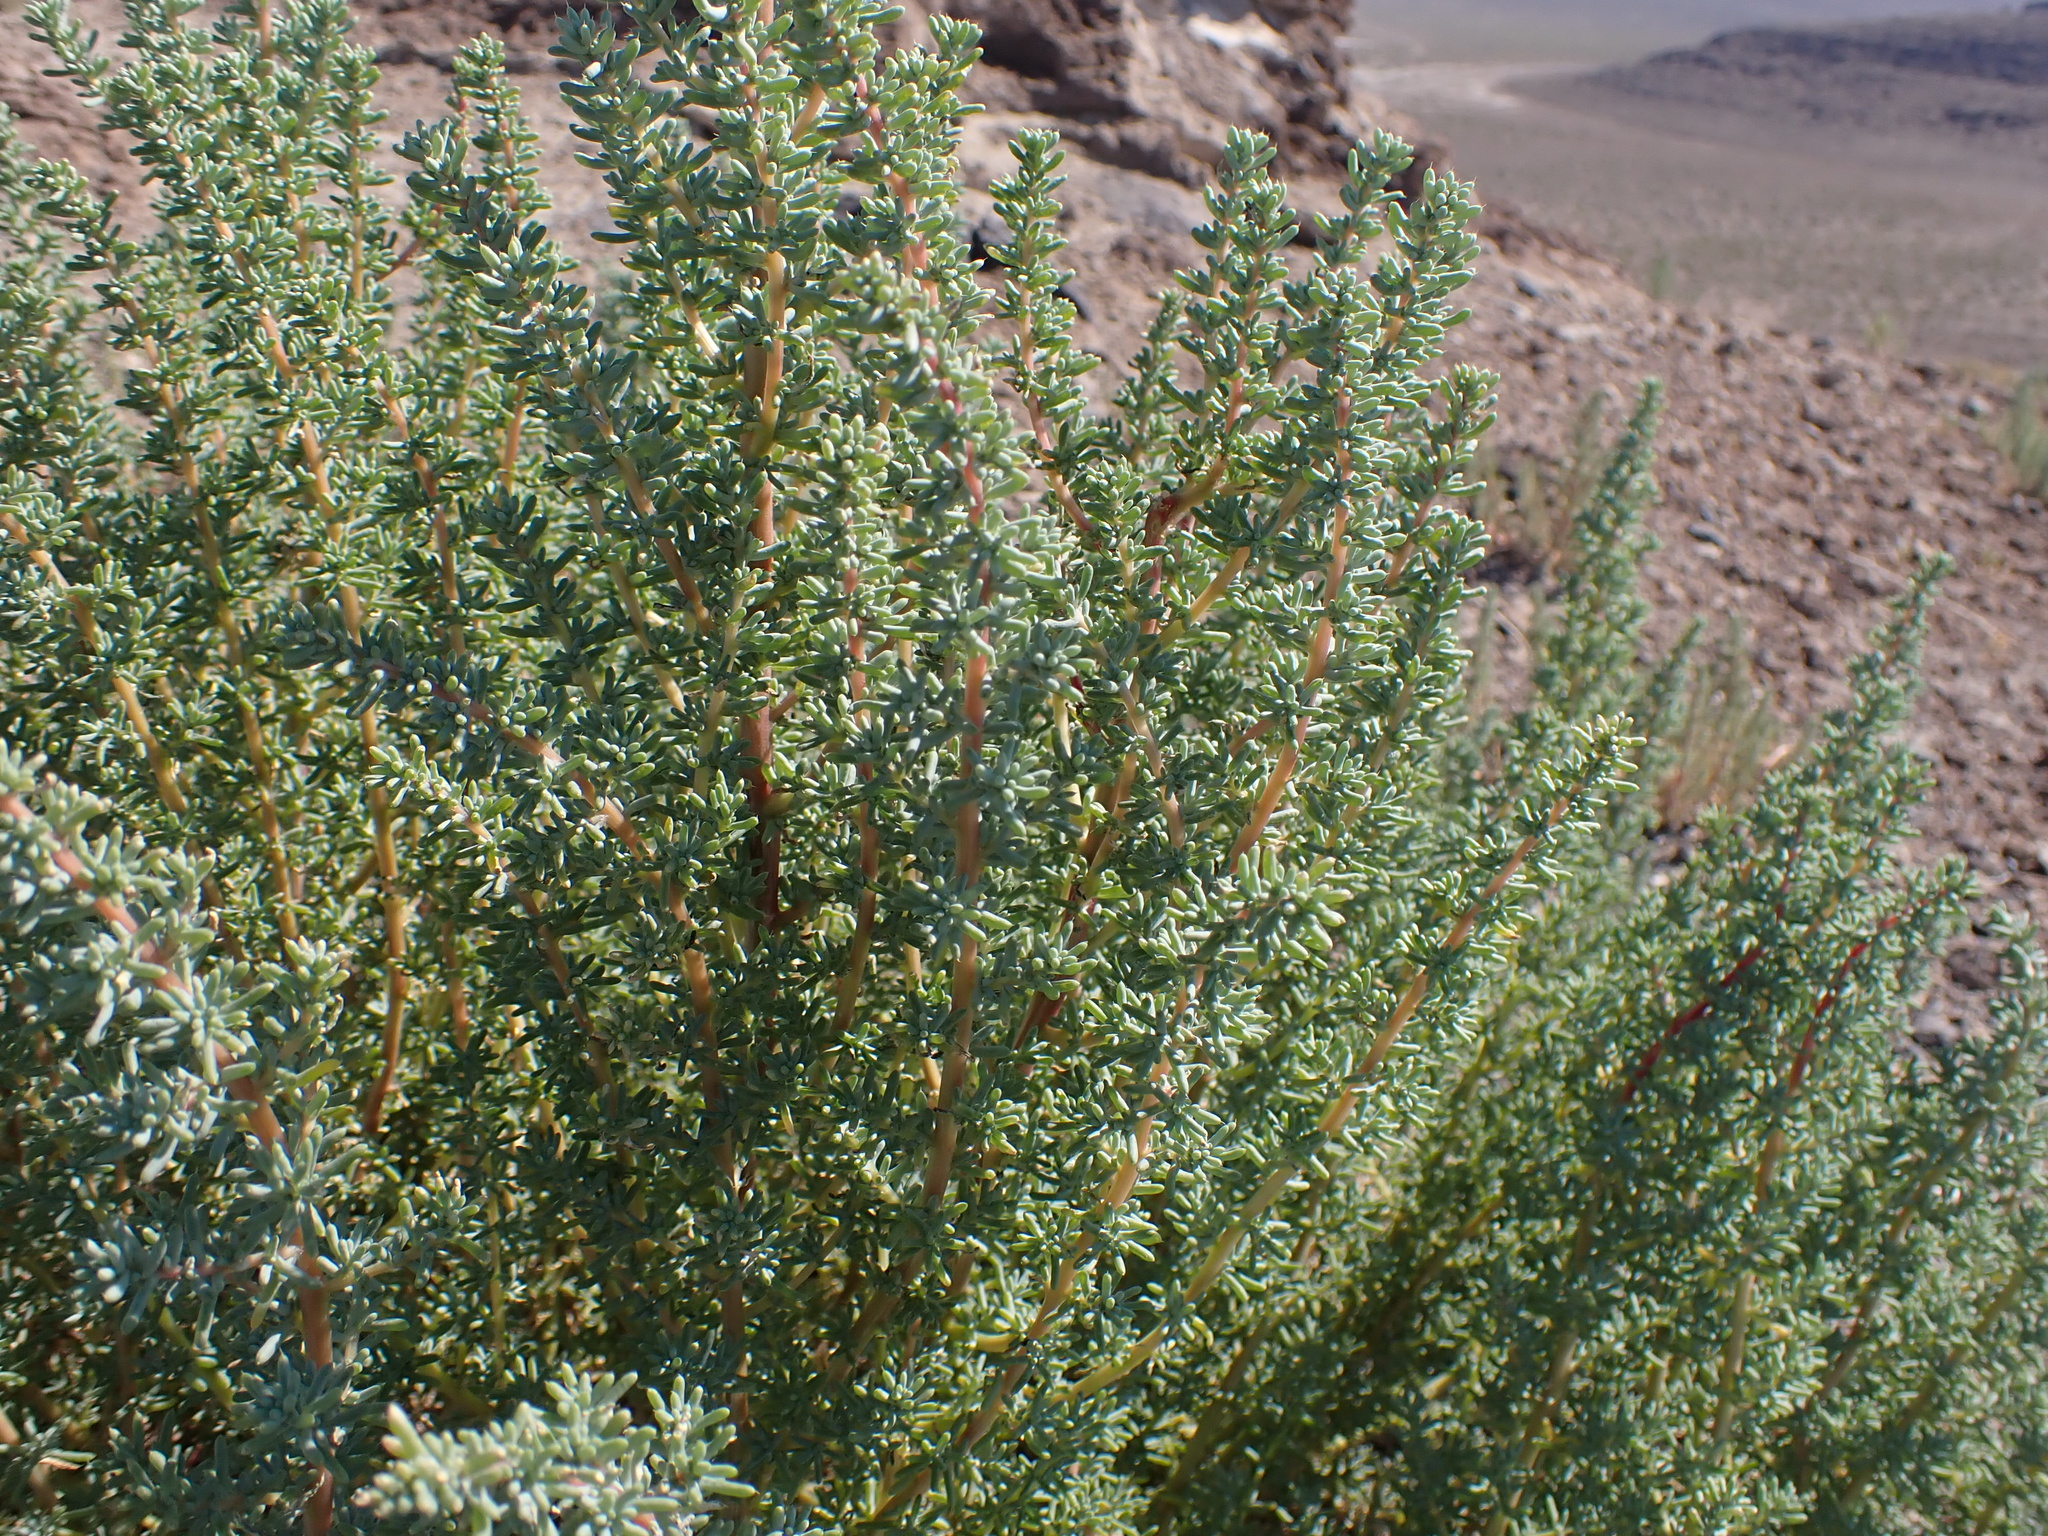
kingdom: Plantae
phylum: Tracheophyta
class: Magnoliopsida
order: Caryophyllales
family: Amaranthaceae
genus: Halogeton
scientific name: Halogeton glomeratus
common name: Saltlover
